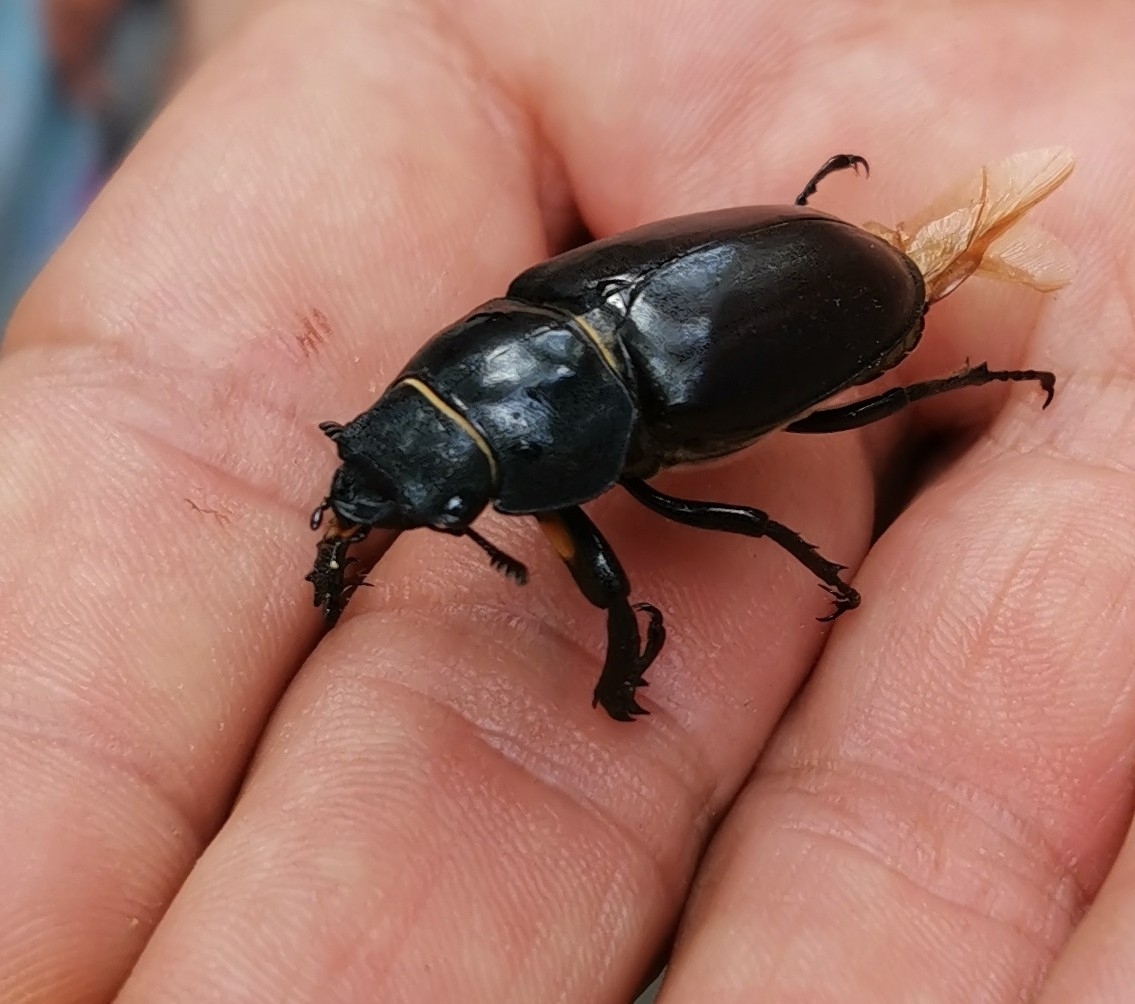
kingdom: Animalia
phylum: Arthropoda
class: Insecta
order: Coleoptera
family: Lucanidae
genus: Lucanus
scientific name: Lucanus cervus
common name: Stag beetle
